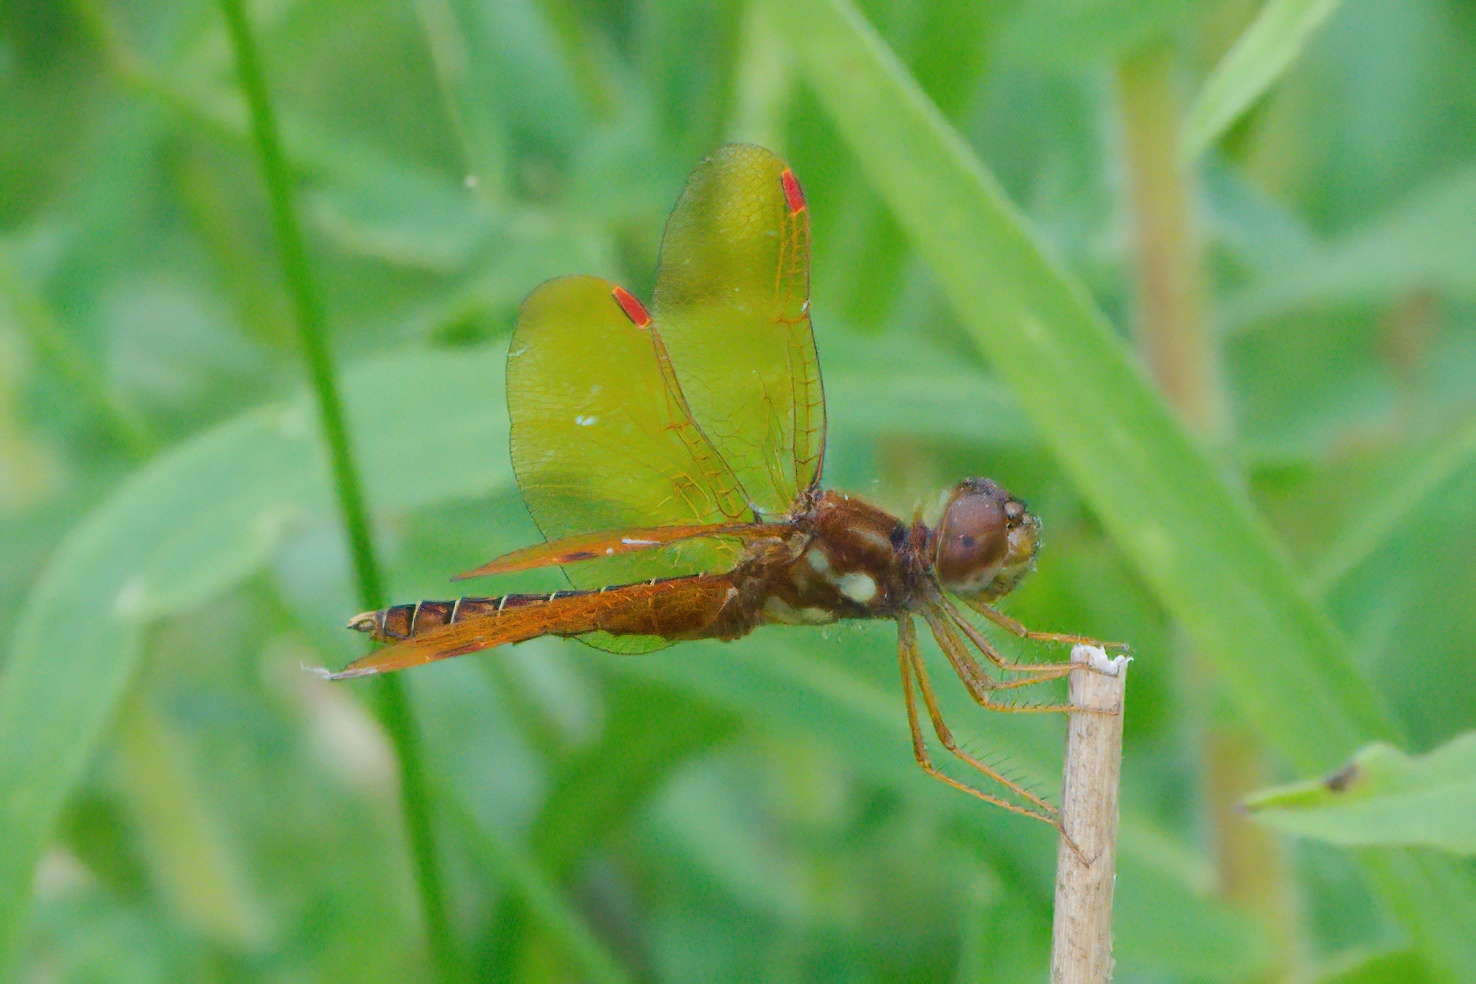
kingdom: Animalia
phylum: Arthropoda
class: Insecta
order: Odonata
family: Libellulidae
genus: Perithemis
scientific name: Perithemis tenera
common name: Eastern amberwing
